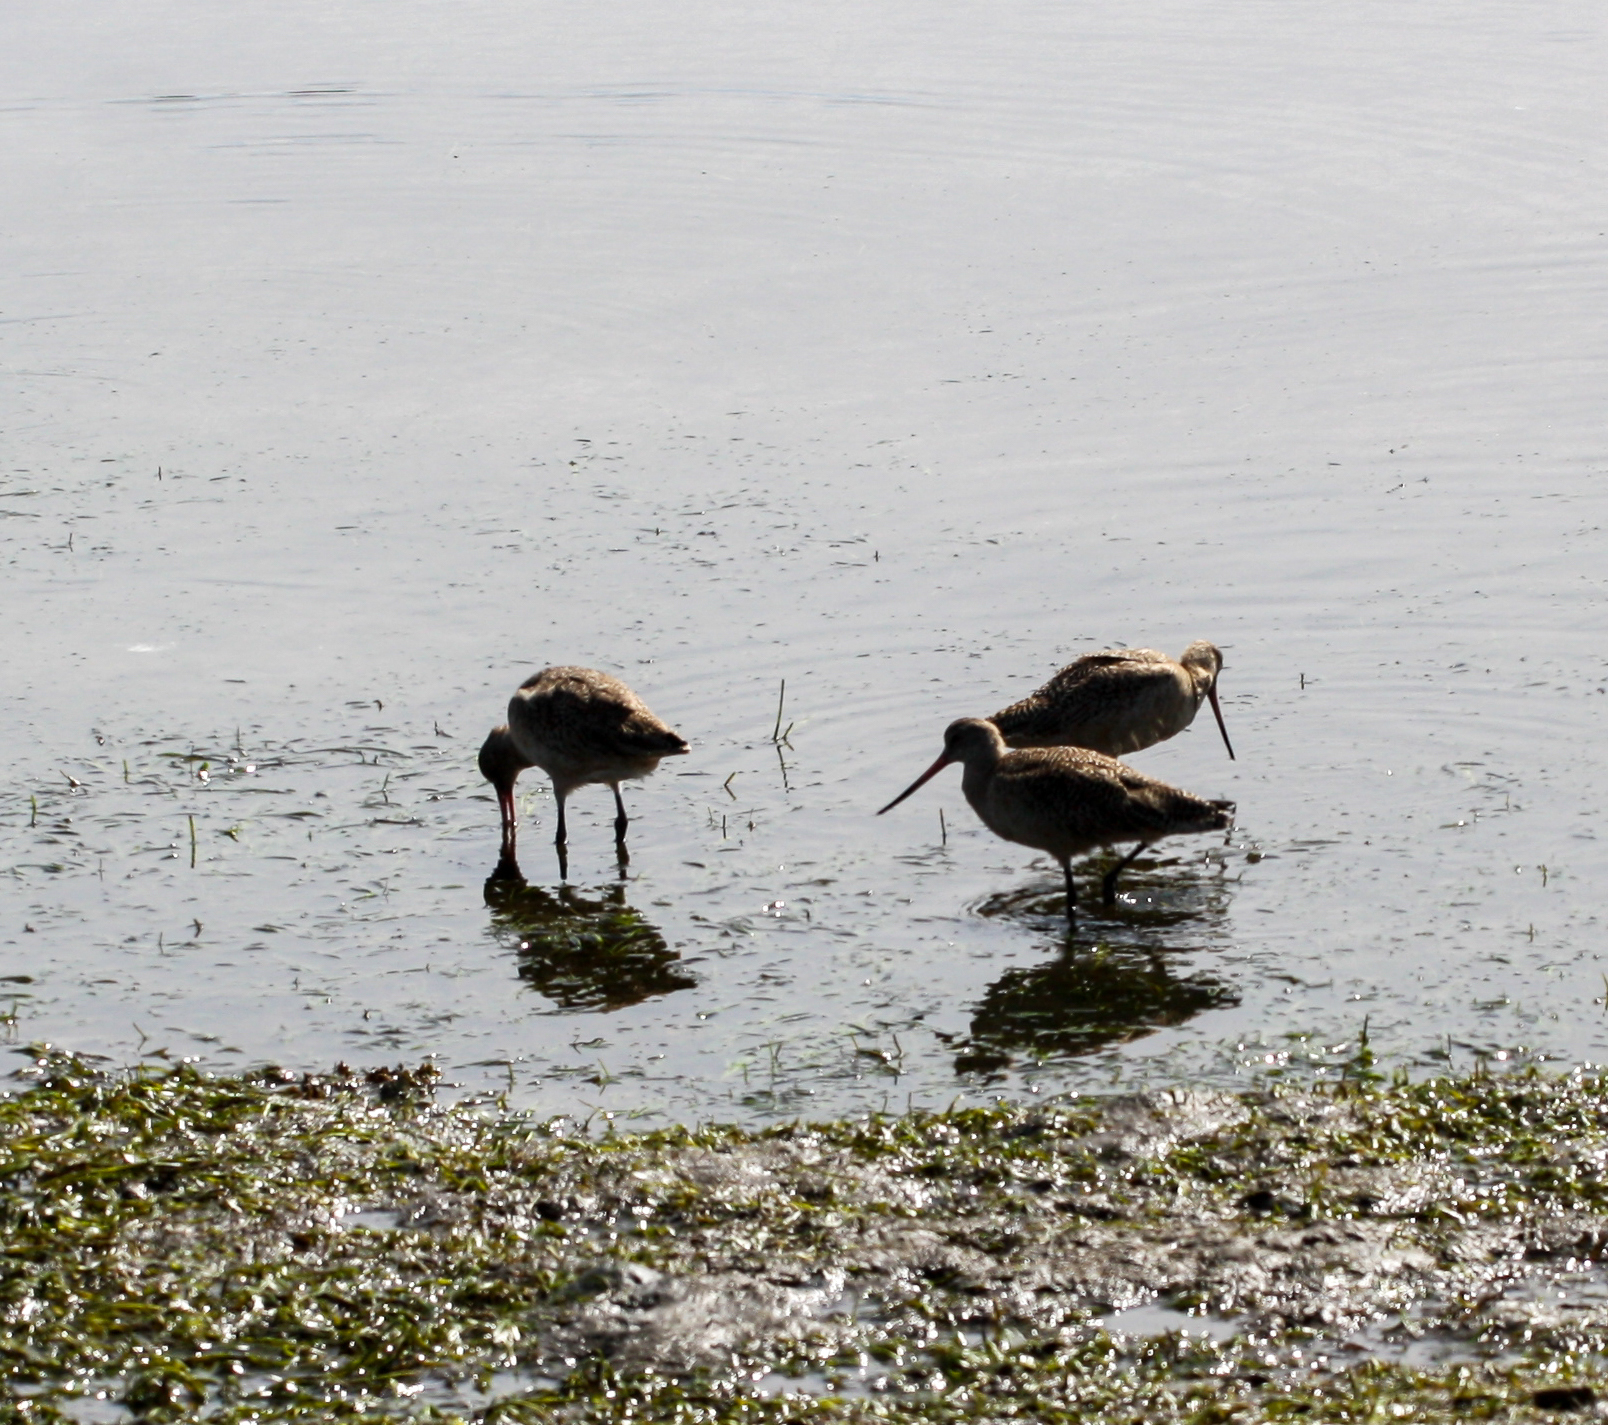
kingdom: Animalia
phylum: Chordata
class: Aves
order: Charadriiformes
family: Scolopacidae
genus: Limosa
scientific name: Limosa fedoa
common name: Marbled godwit
